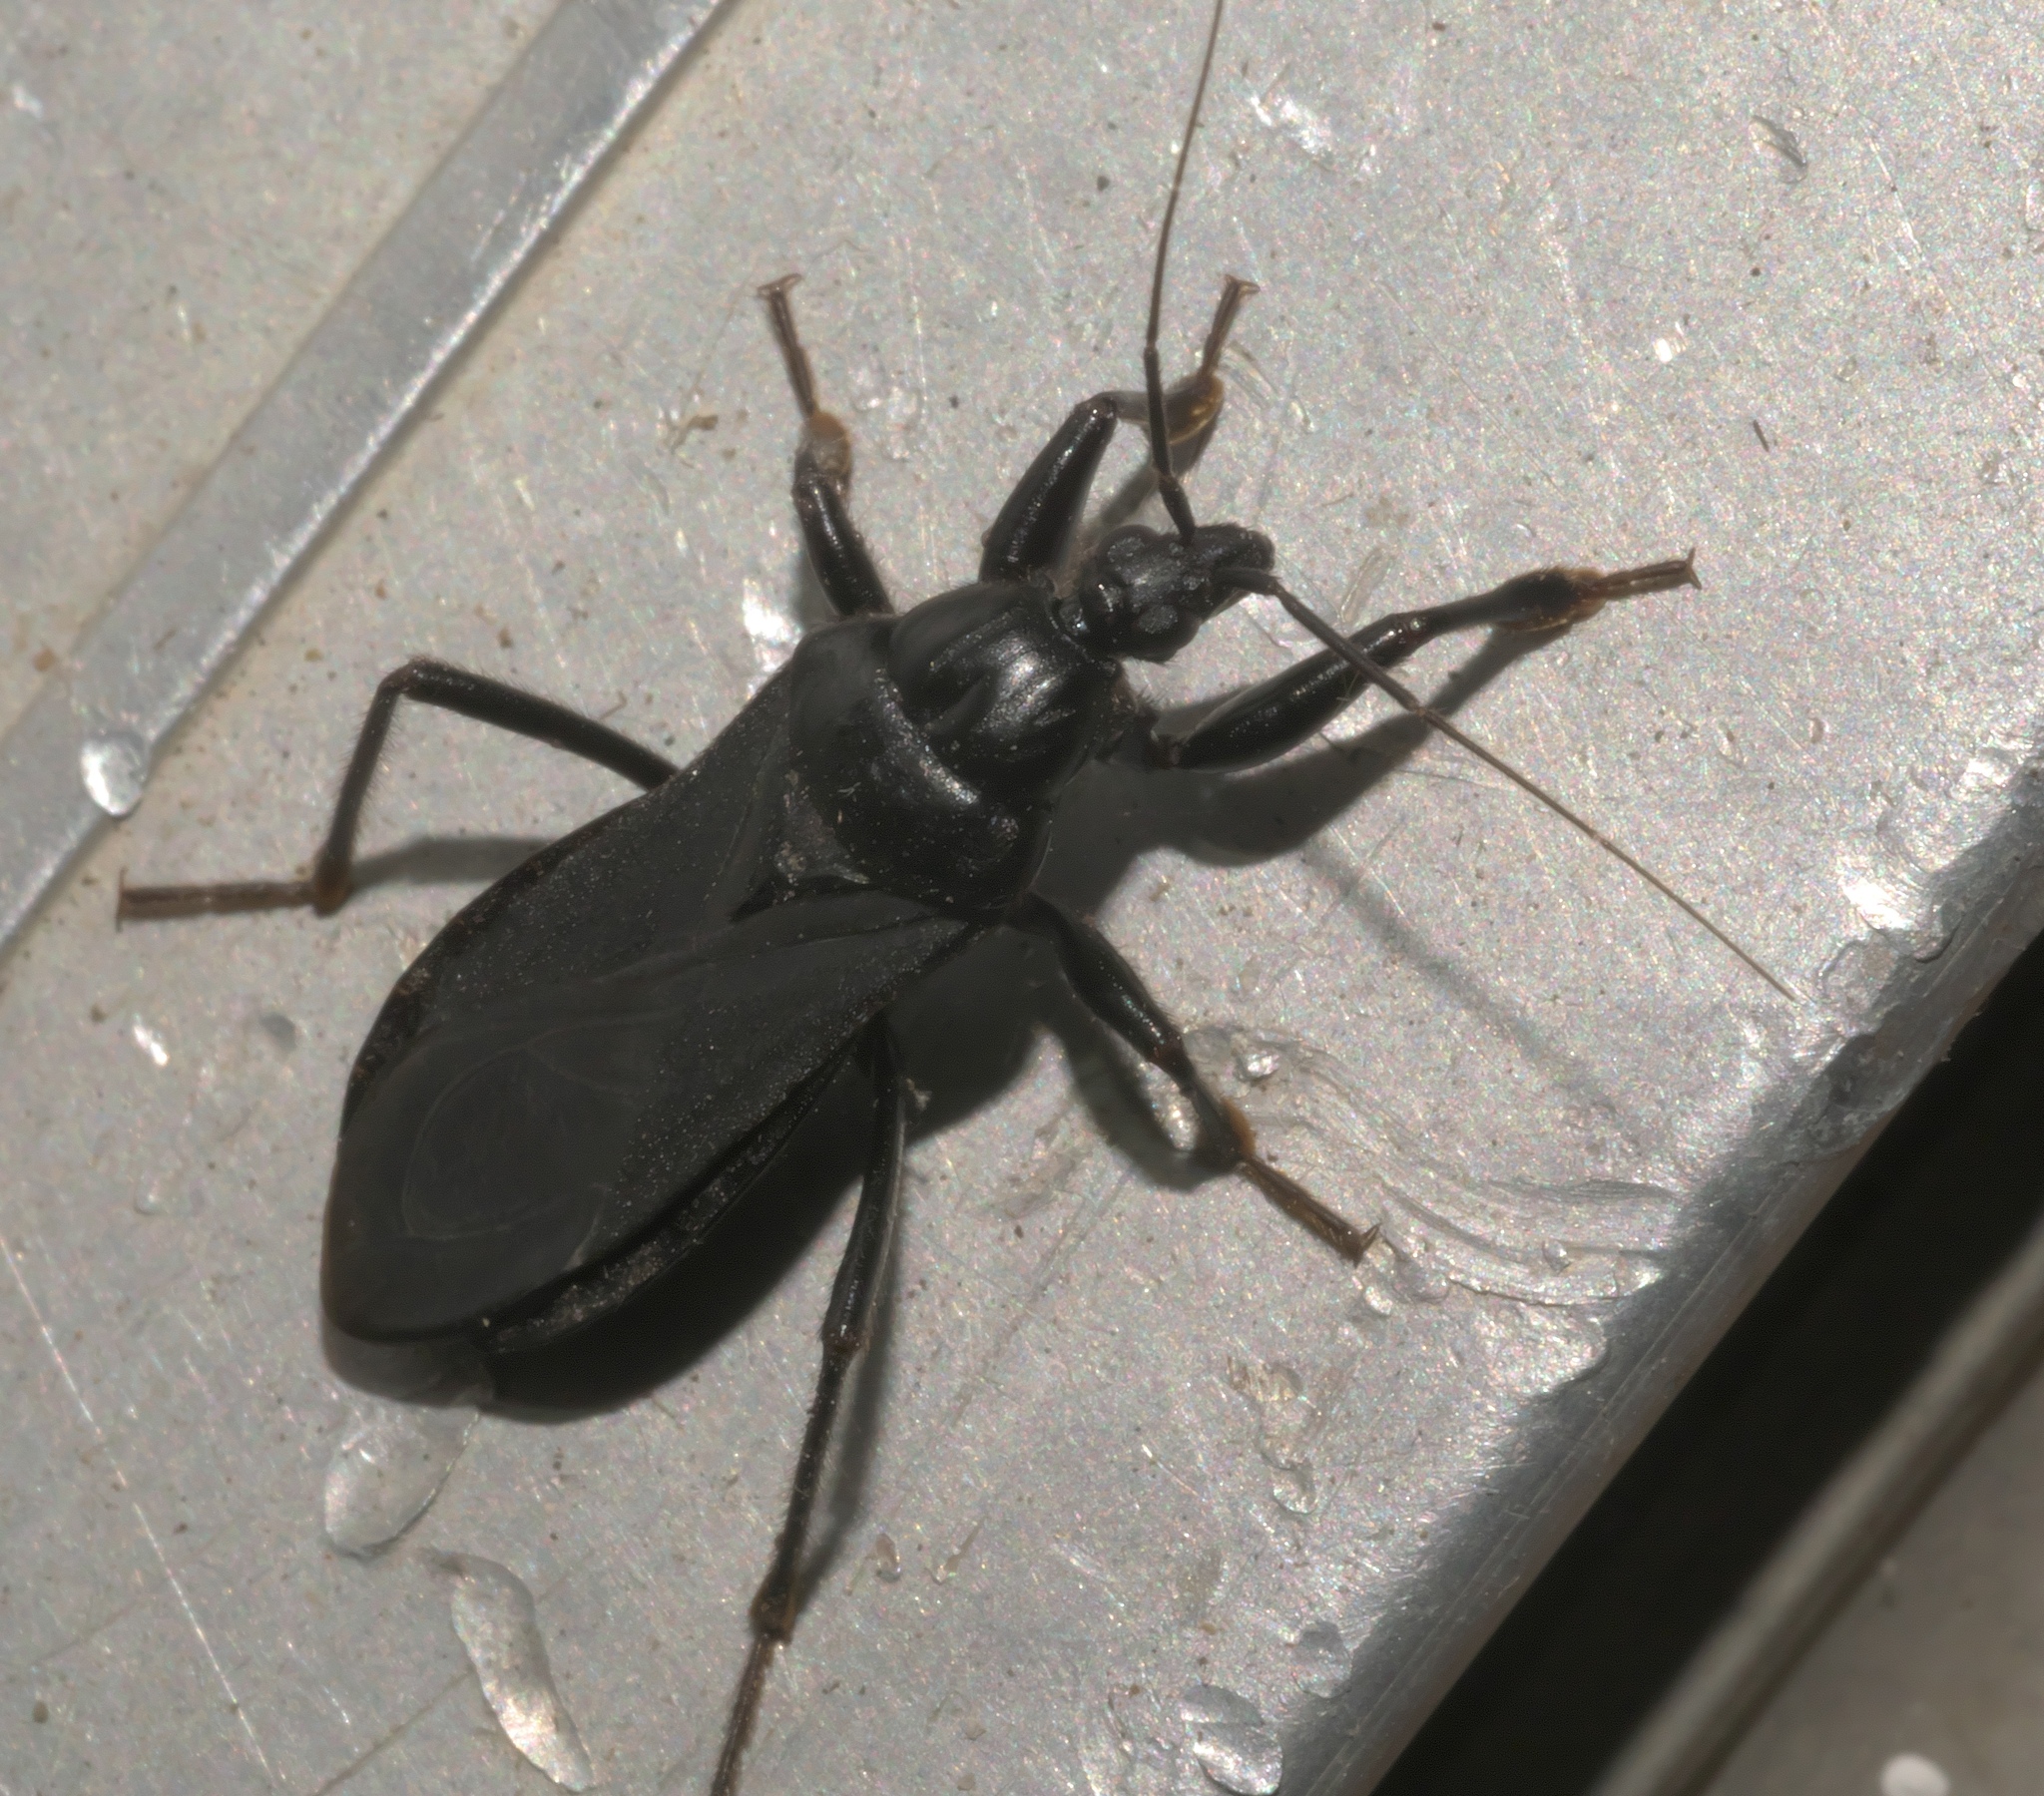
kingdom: Animalia
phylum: Arthropoda
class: Insecta
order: Hemiptera
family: Reduviidae
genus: Melanolestes
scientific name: Melanolestes picipes
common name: Assassin bug
